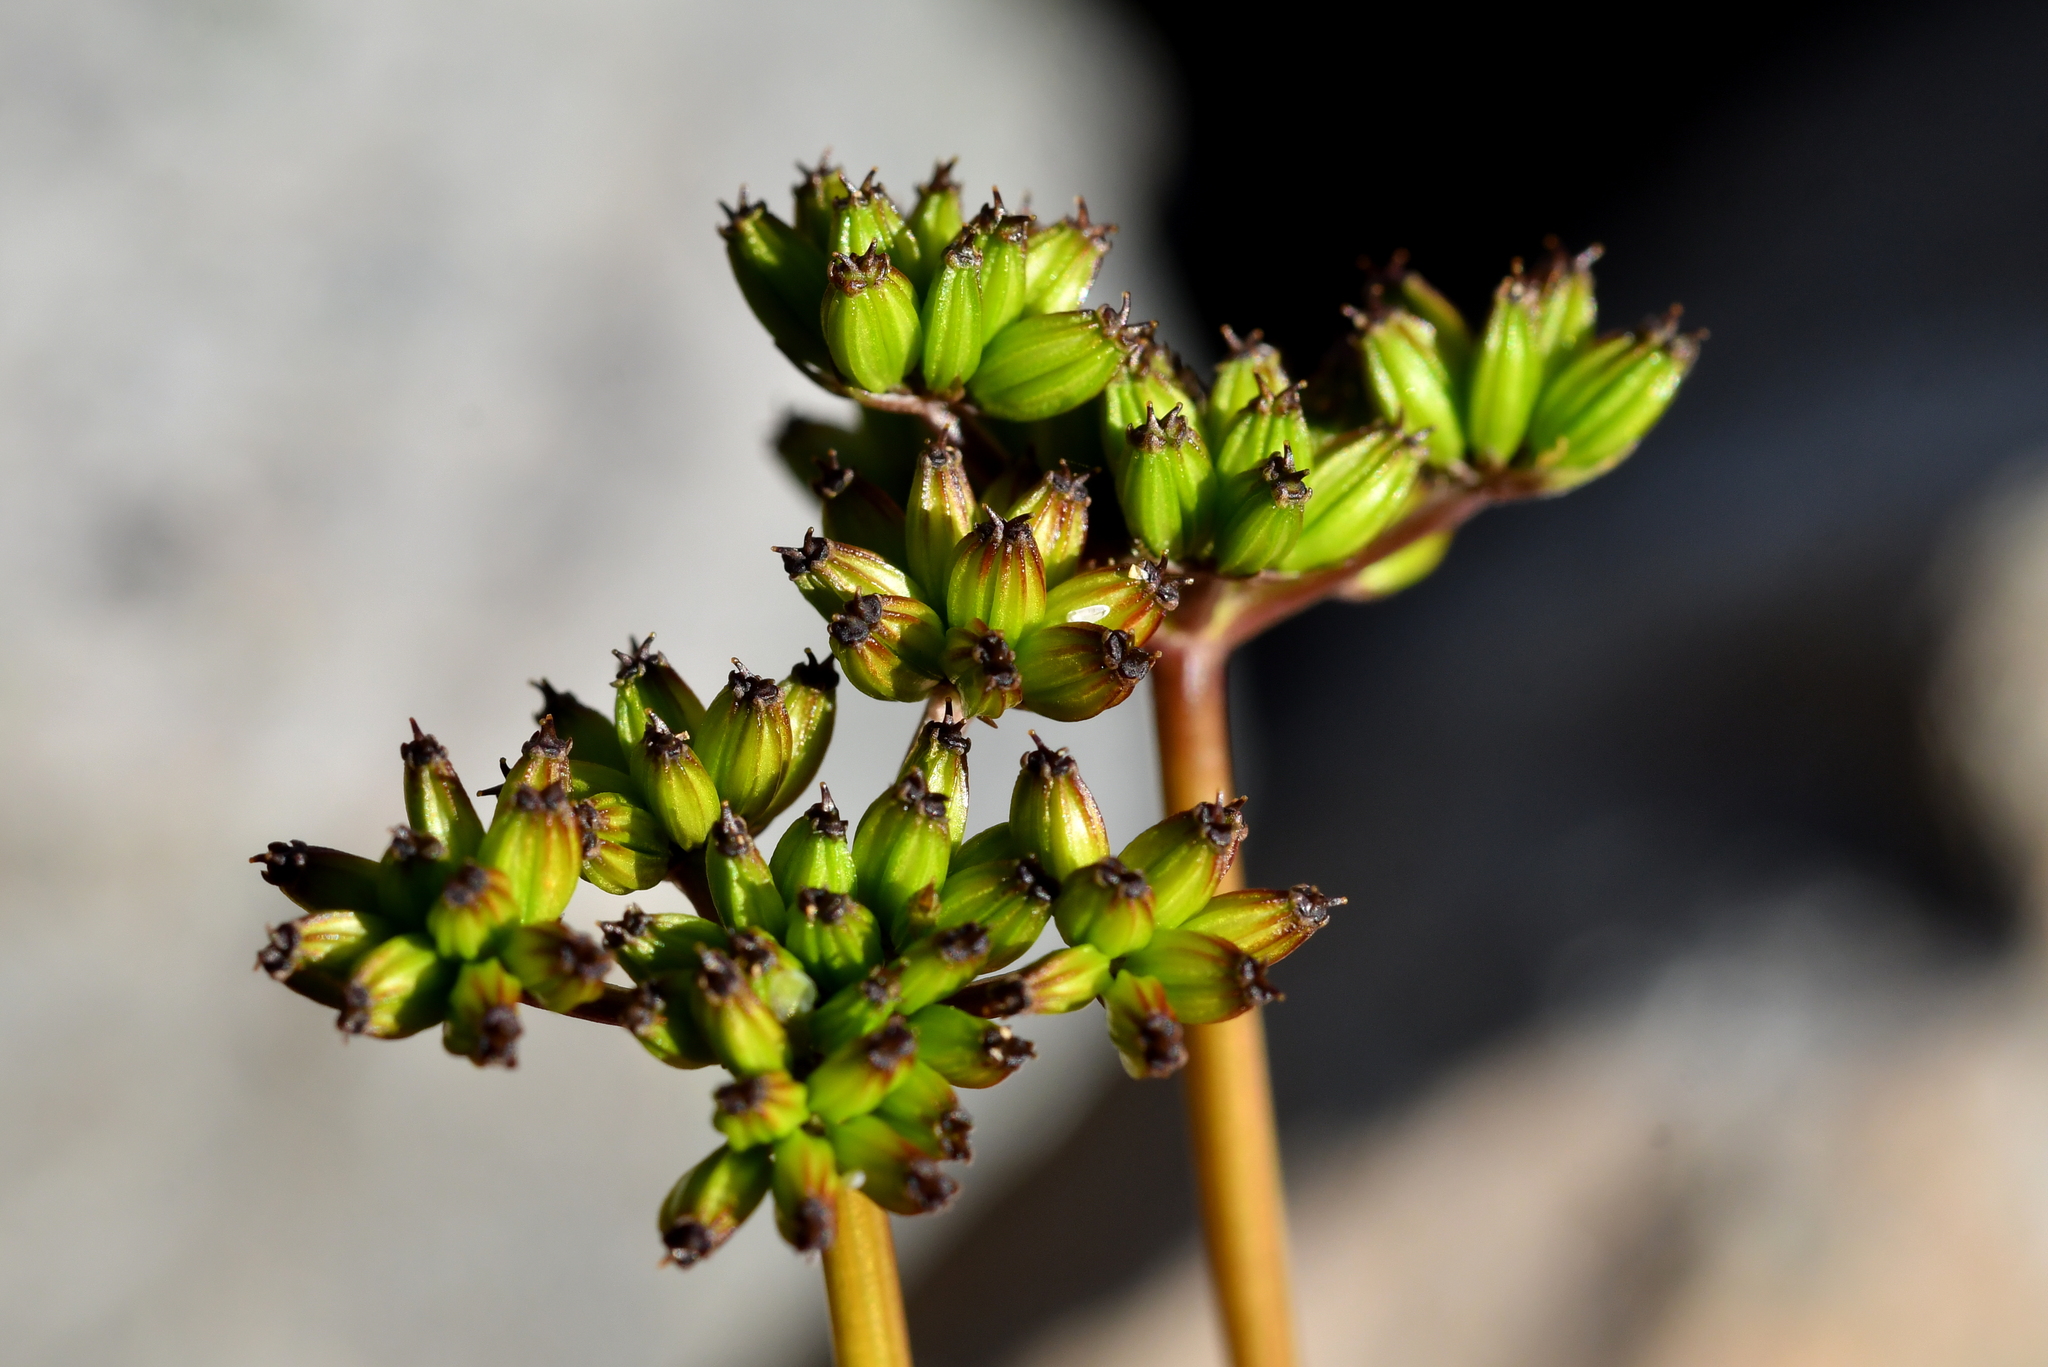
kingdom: Plantae
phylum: Tracheophyta
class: Magnoliopsida
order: Apiales
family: Apiaceae
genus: Anisotome
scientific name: Anisotome flexuosa
